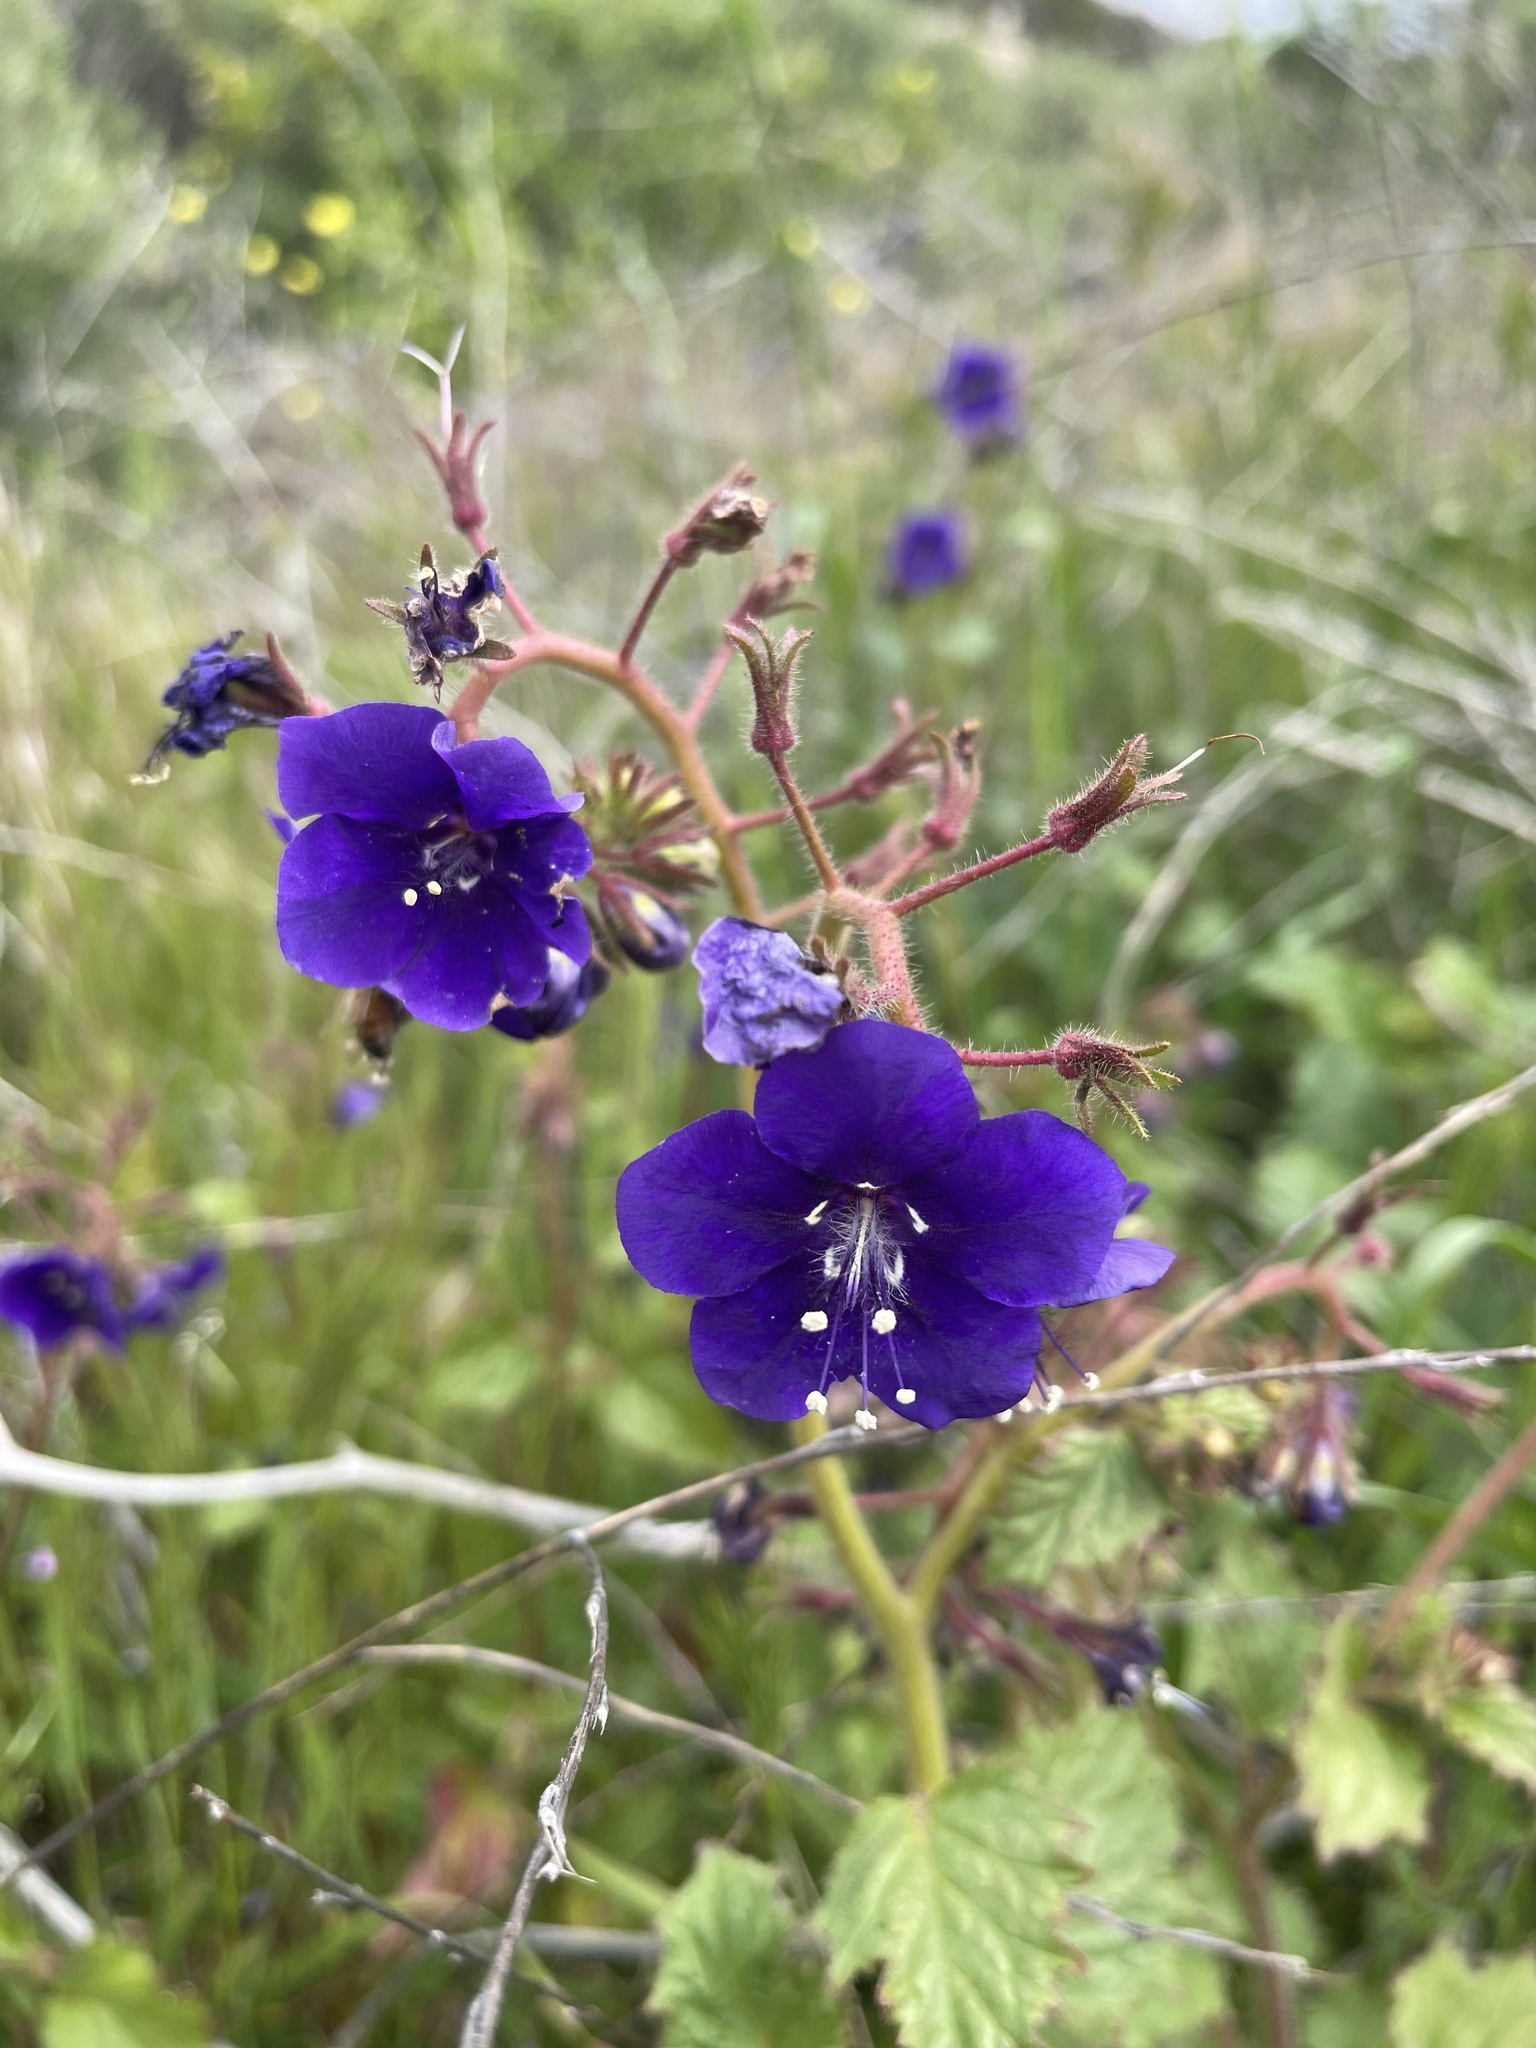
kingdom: Plantae
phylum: Tracheophyta
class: Magnoliopsida
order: Boraginales
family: Hydrophyllaceae
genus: Phacelia
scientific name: Phacelia parryi
